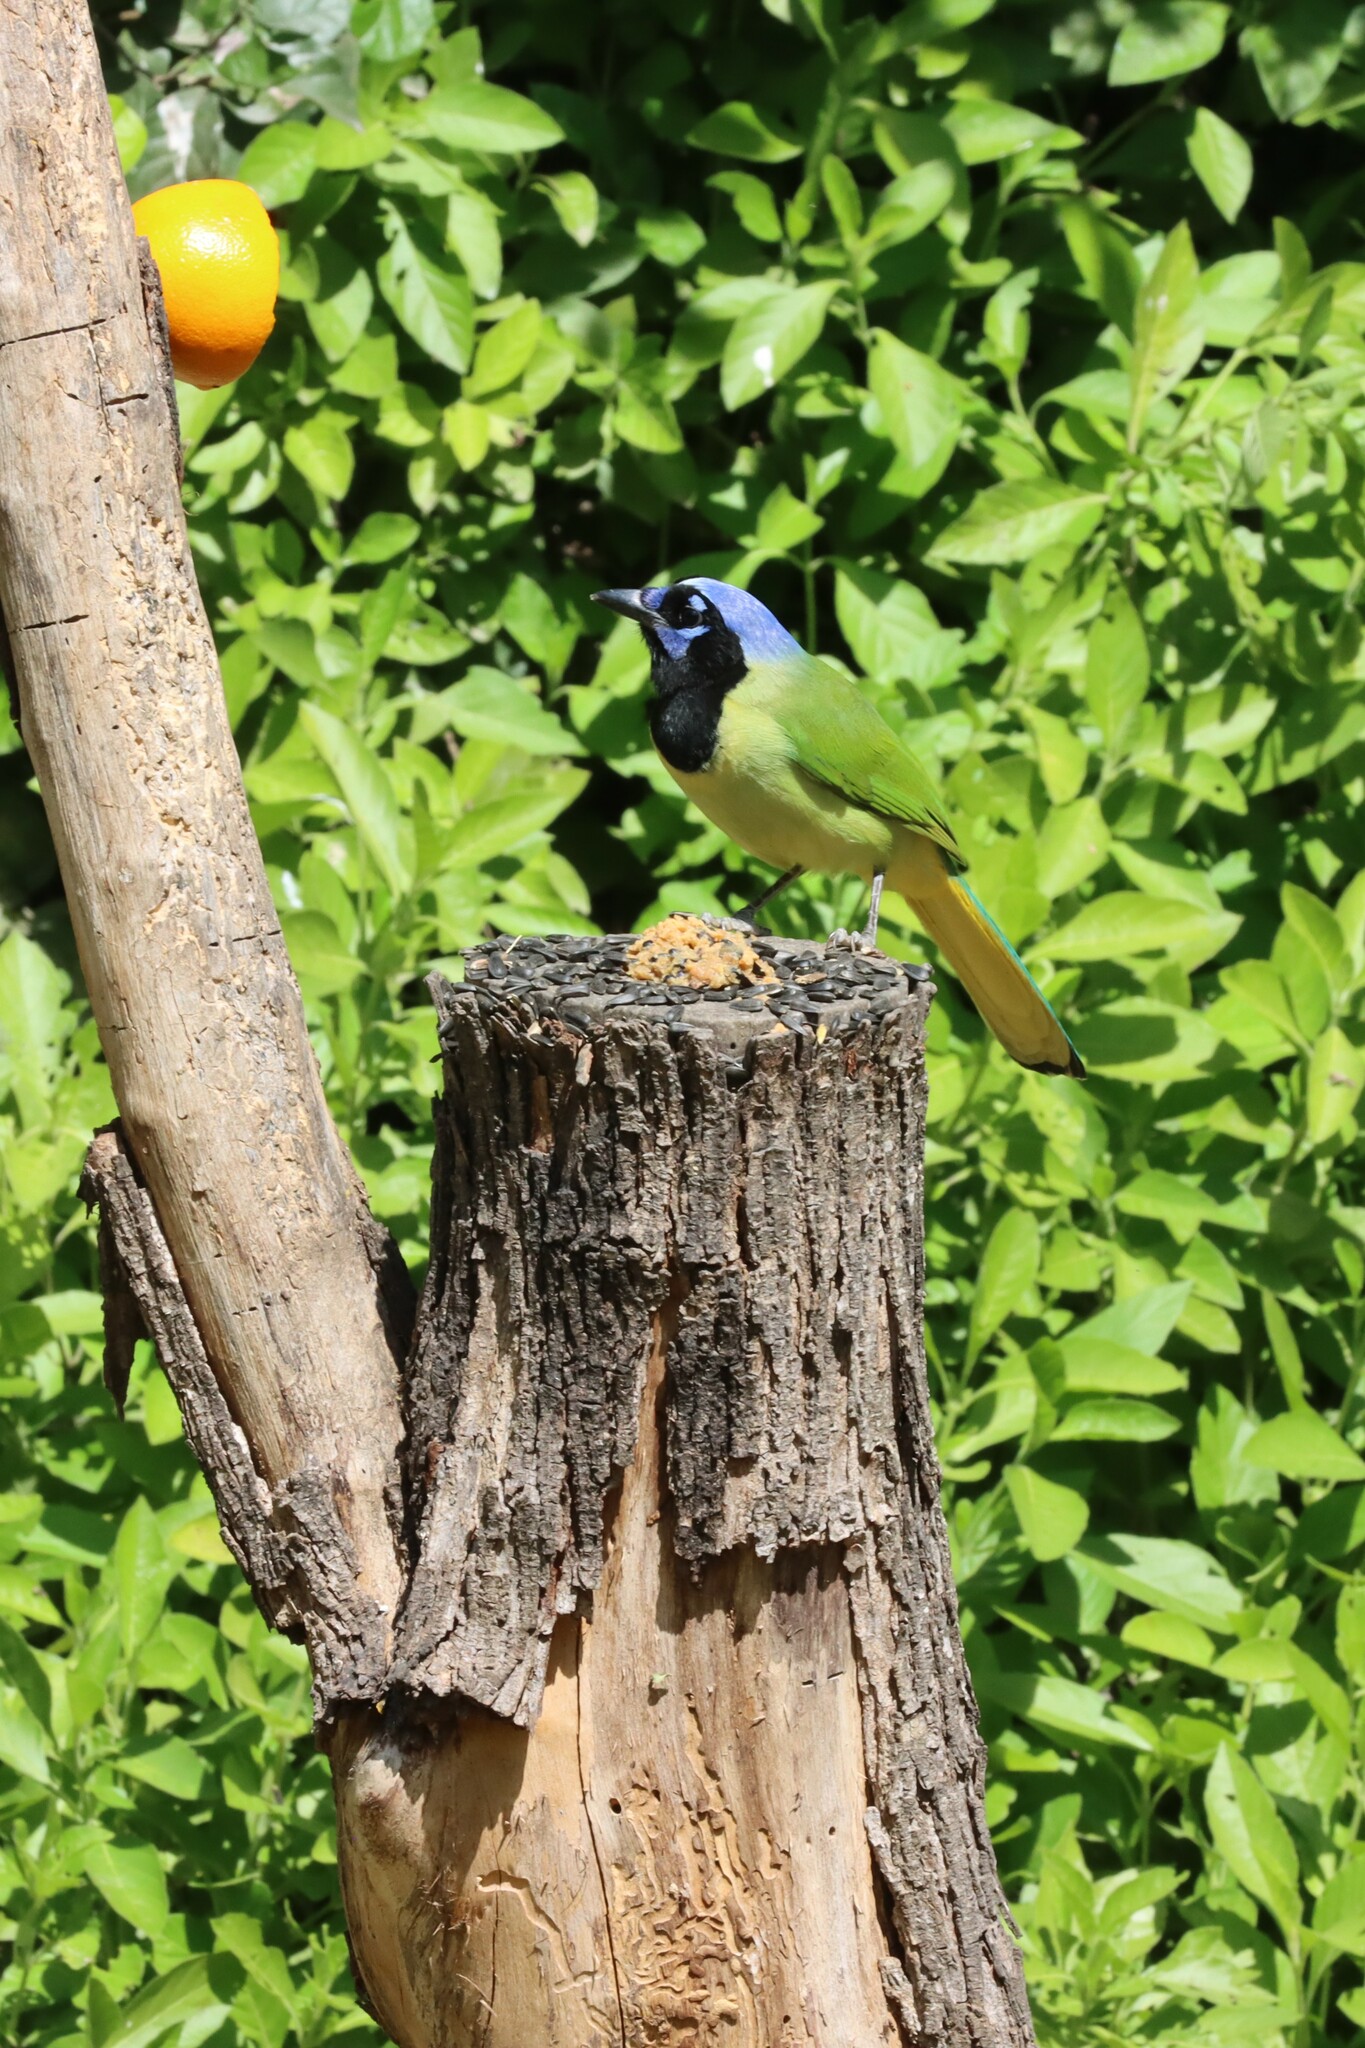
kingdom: Animalia
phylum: Chordata
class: Aves
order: Passeriformes
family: Corvidae
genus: Cyanocorax
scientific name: Cyanocorax yncas
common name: Green jay
